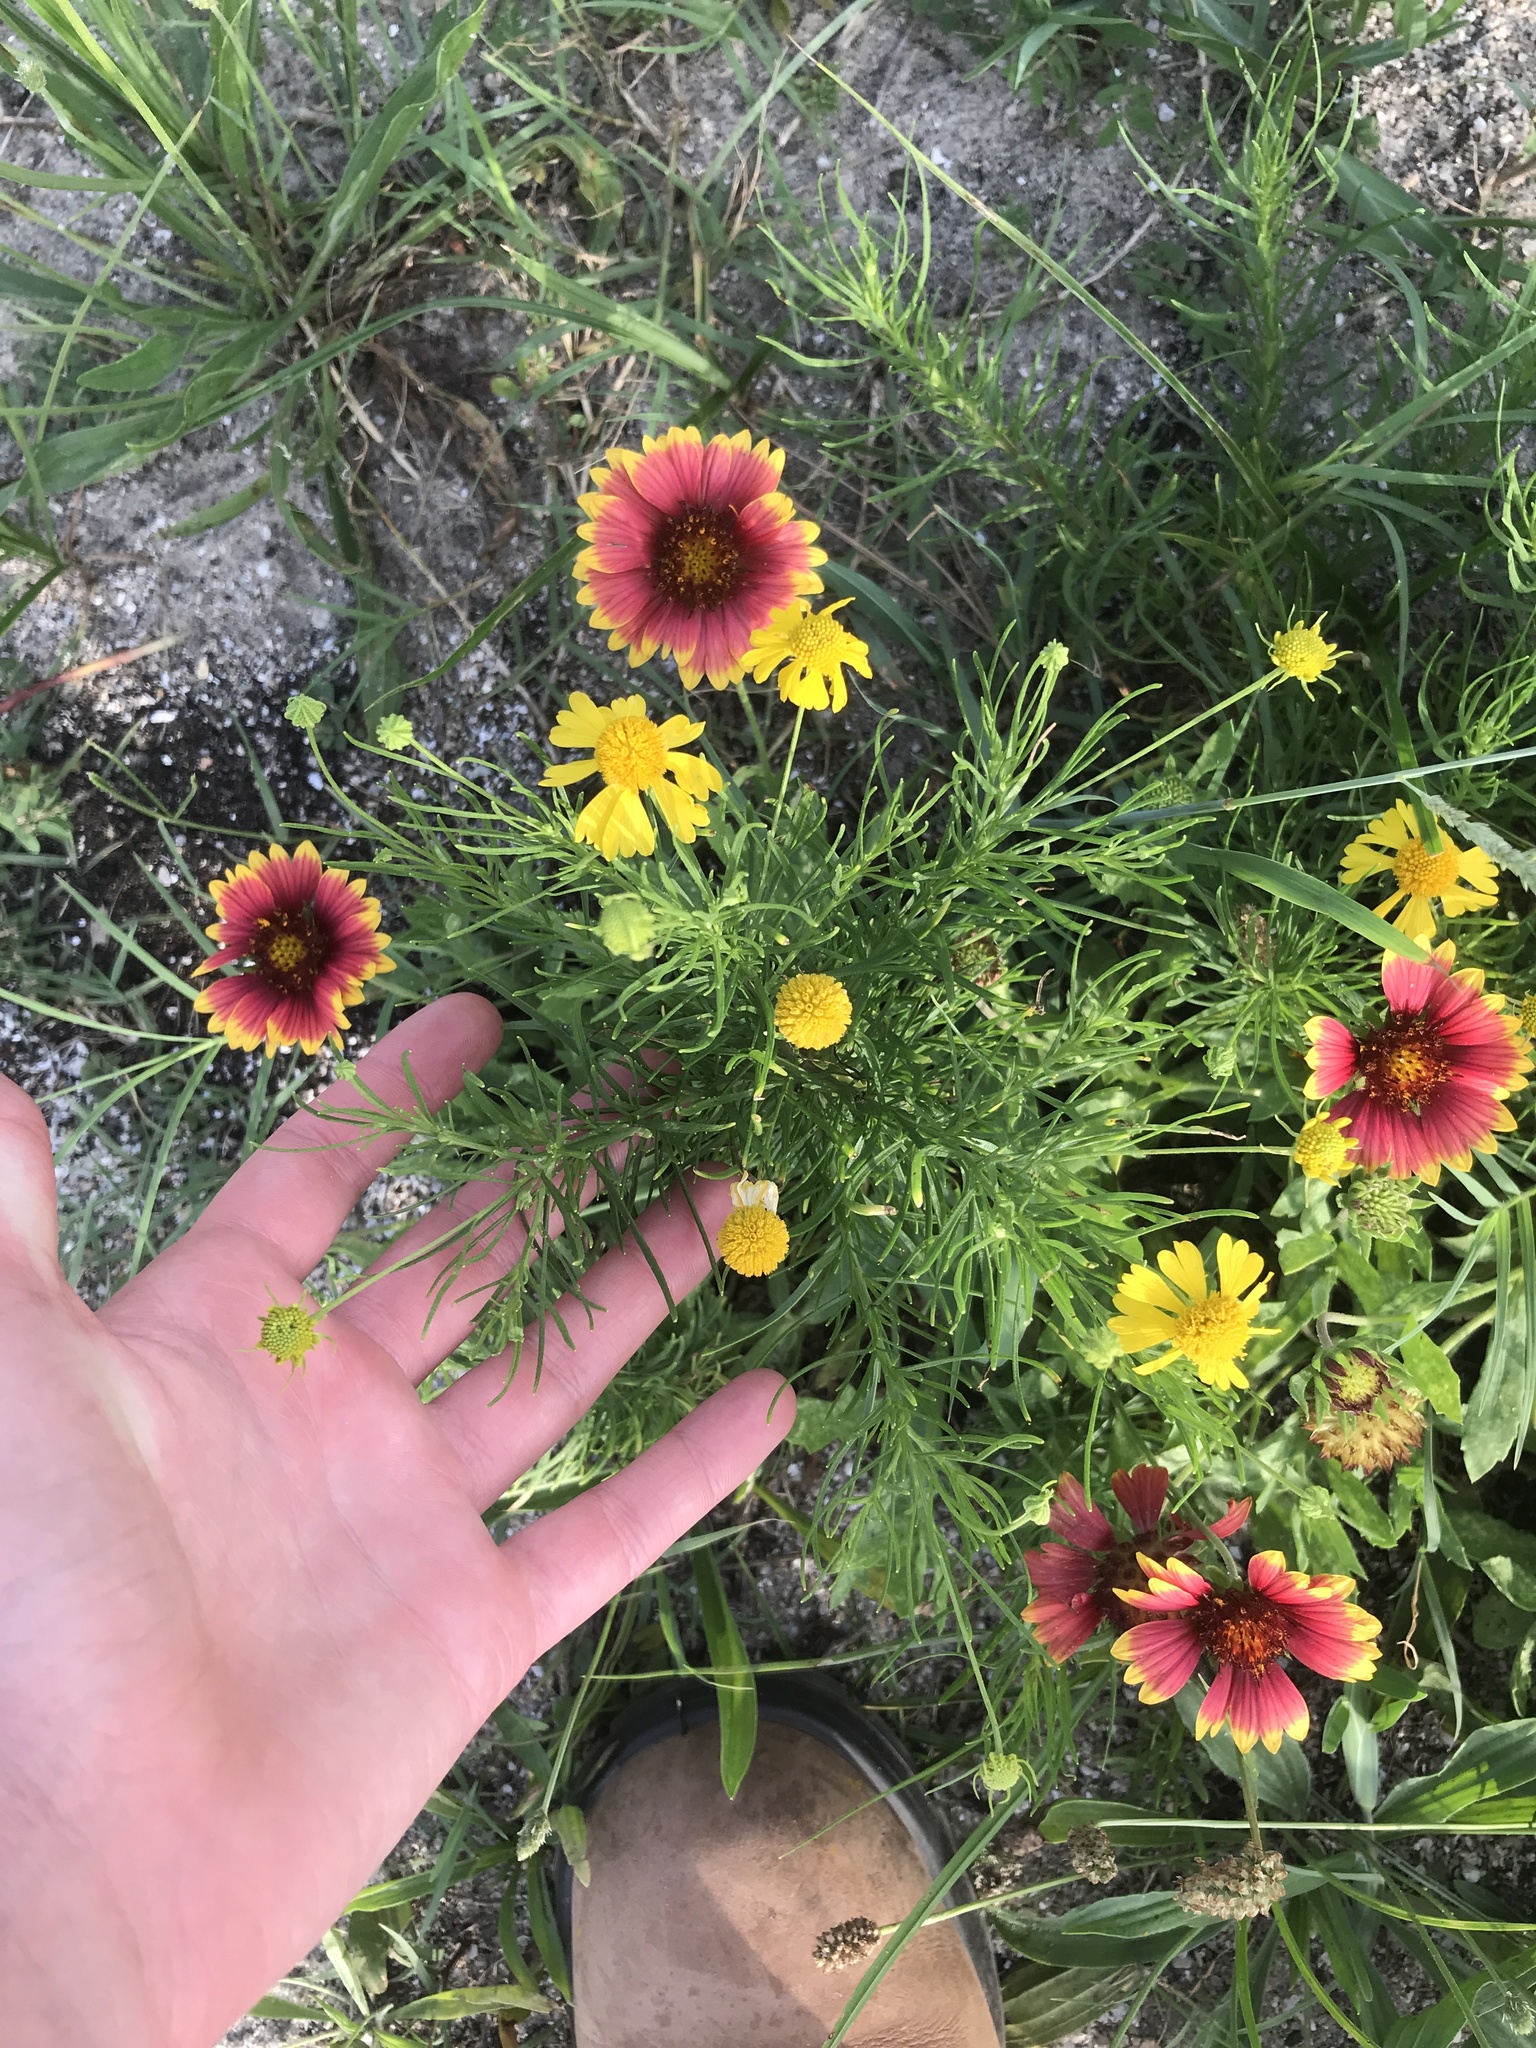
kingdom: Plantae
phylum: Tracheophyta
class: Magnoliopsida
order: Asterales
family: Asteraceae
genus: Helenium
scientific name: Helenium amarum
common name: Bitter sneezeweed
